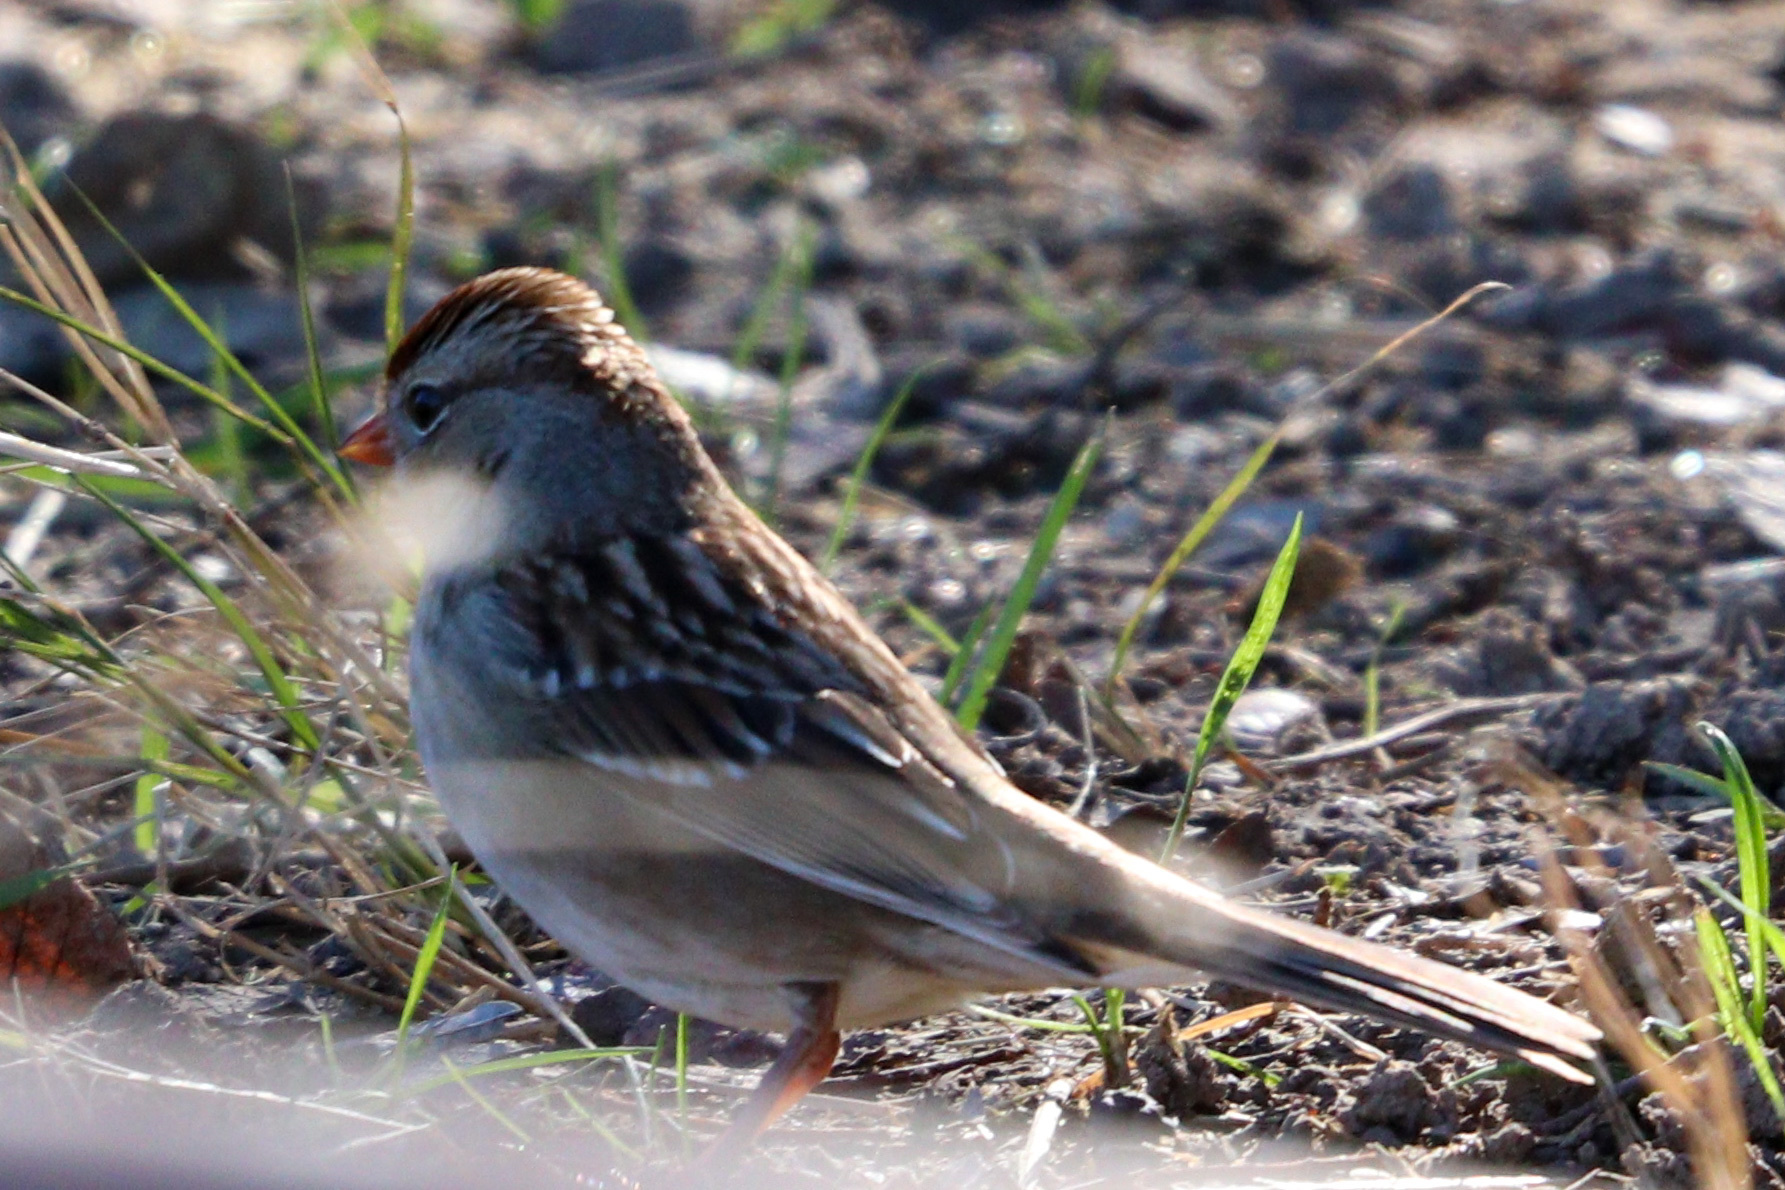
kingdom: Animalia
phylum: Chordata
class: Aves
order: Passeriformes
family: Passerellidae
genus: Zonotrichia
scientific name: Zonotrichia leucophrys
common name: White-crowned sparrow
